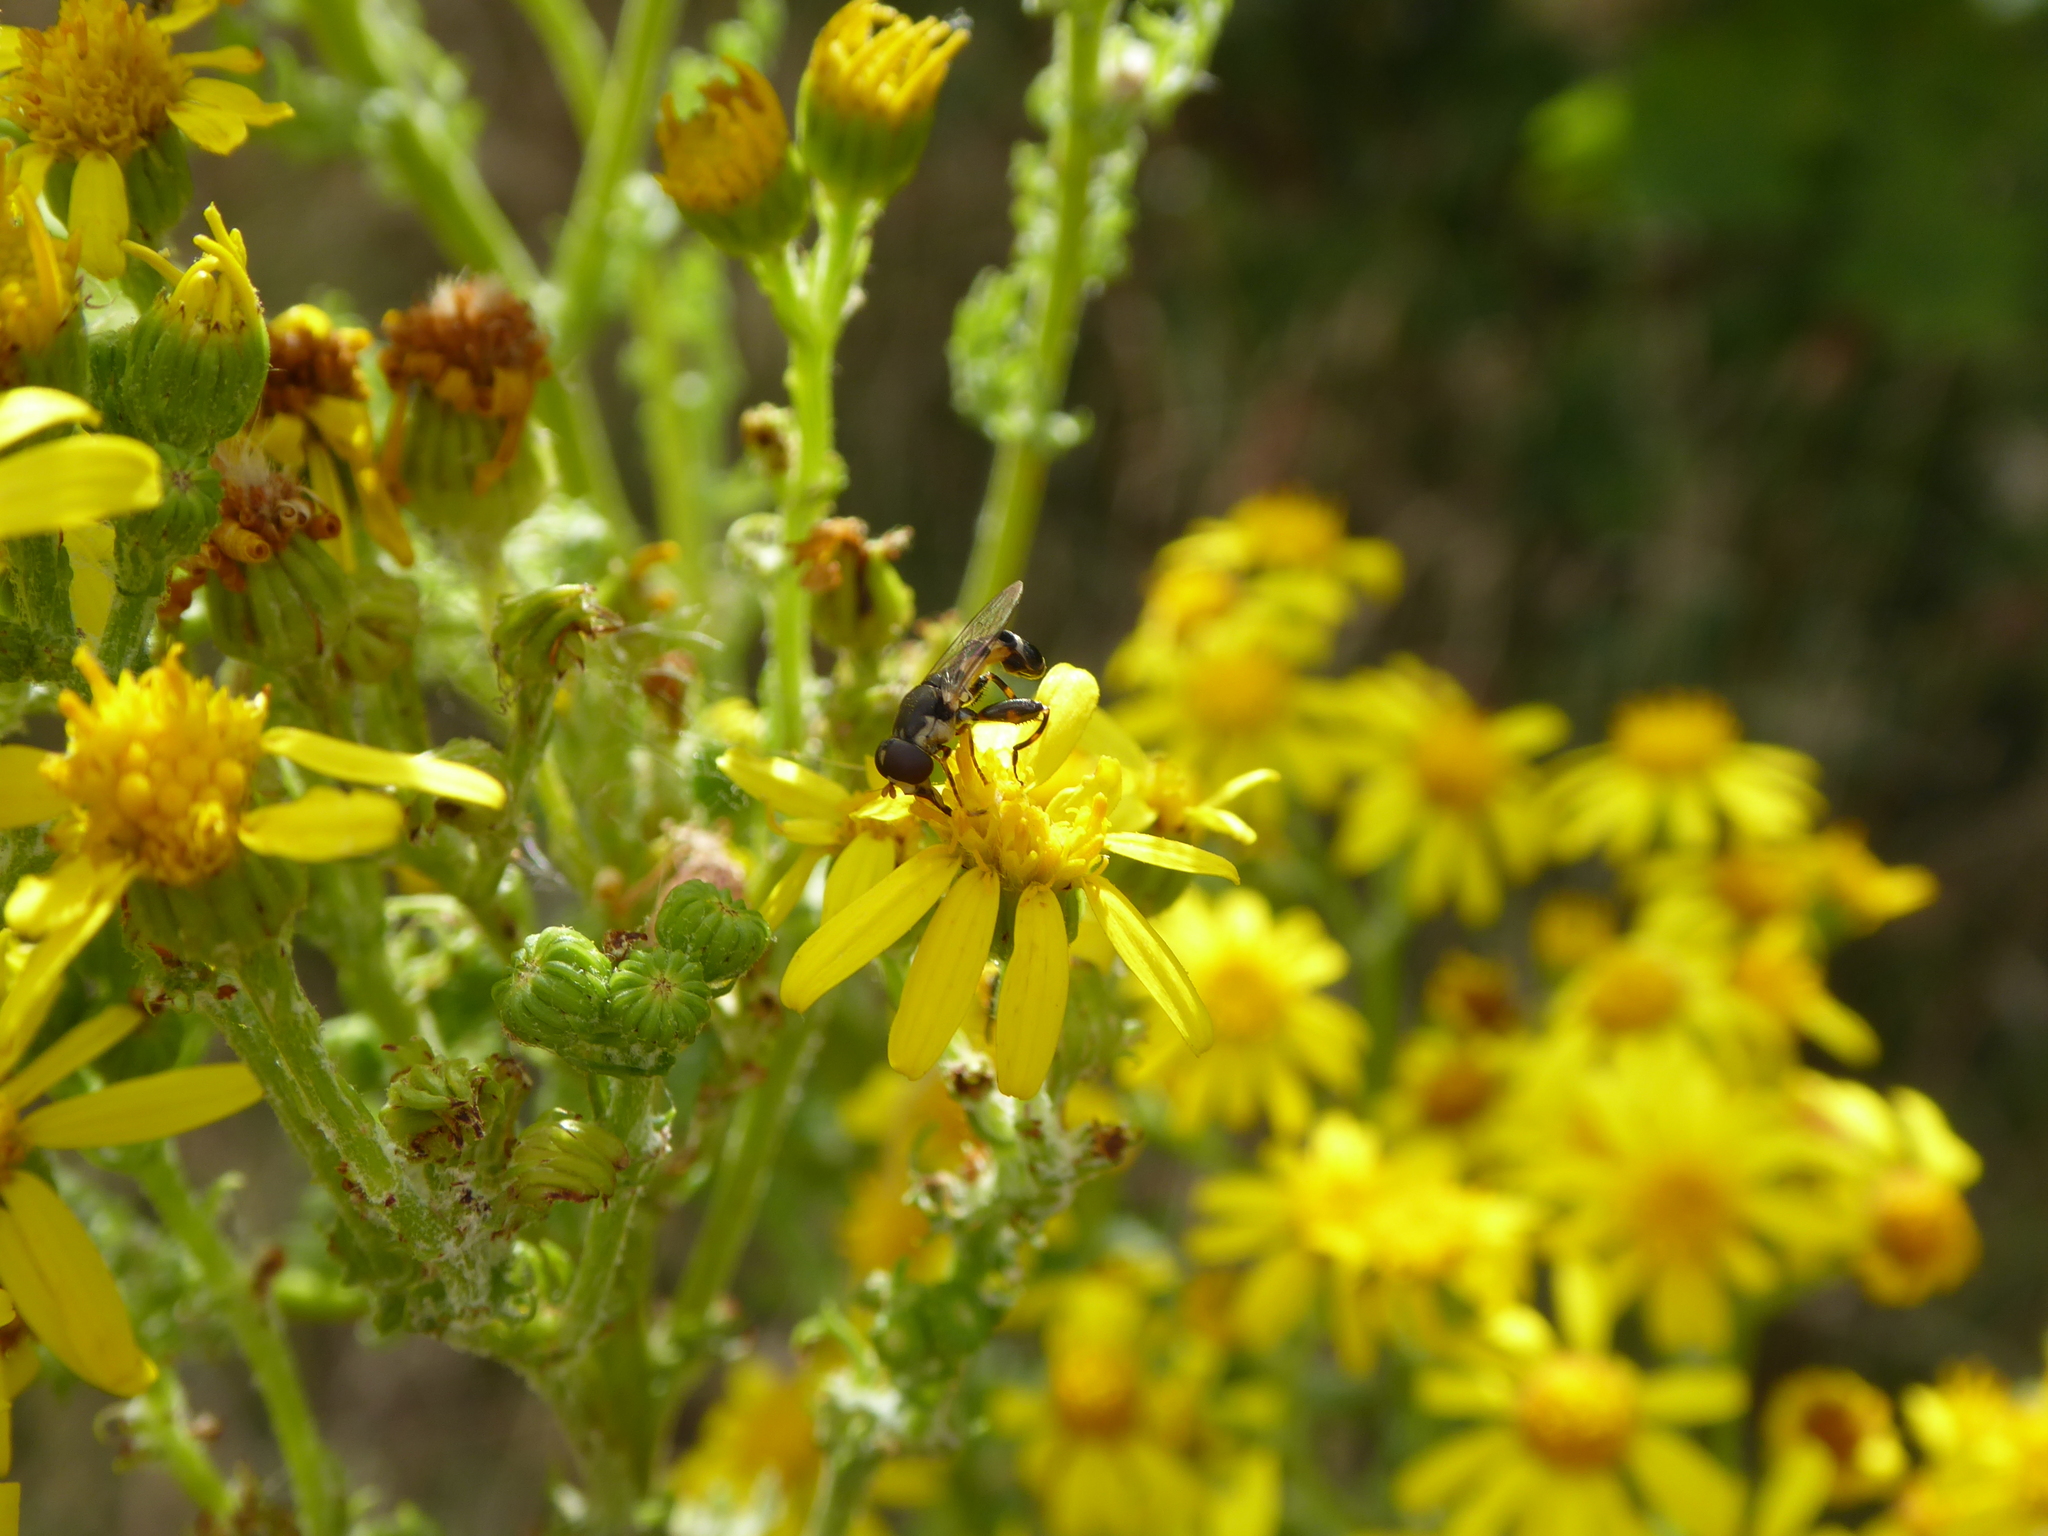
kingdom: Animalia
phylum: Arthropoda
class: Insecta
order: Diptera
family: Syrphidae
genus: Syritta
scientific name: Syritta pipiens
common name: Hover fly
